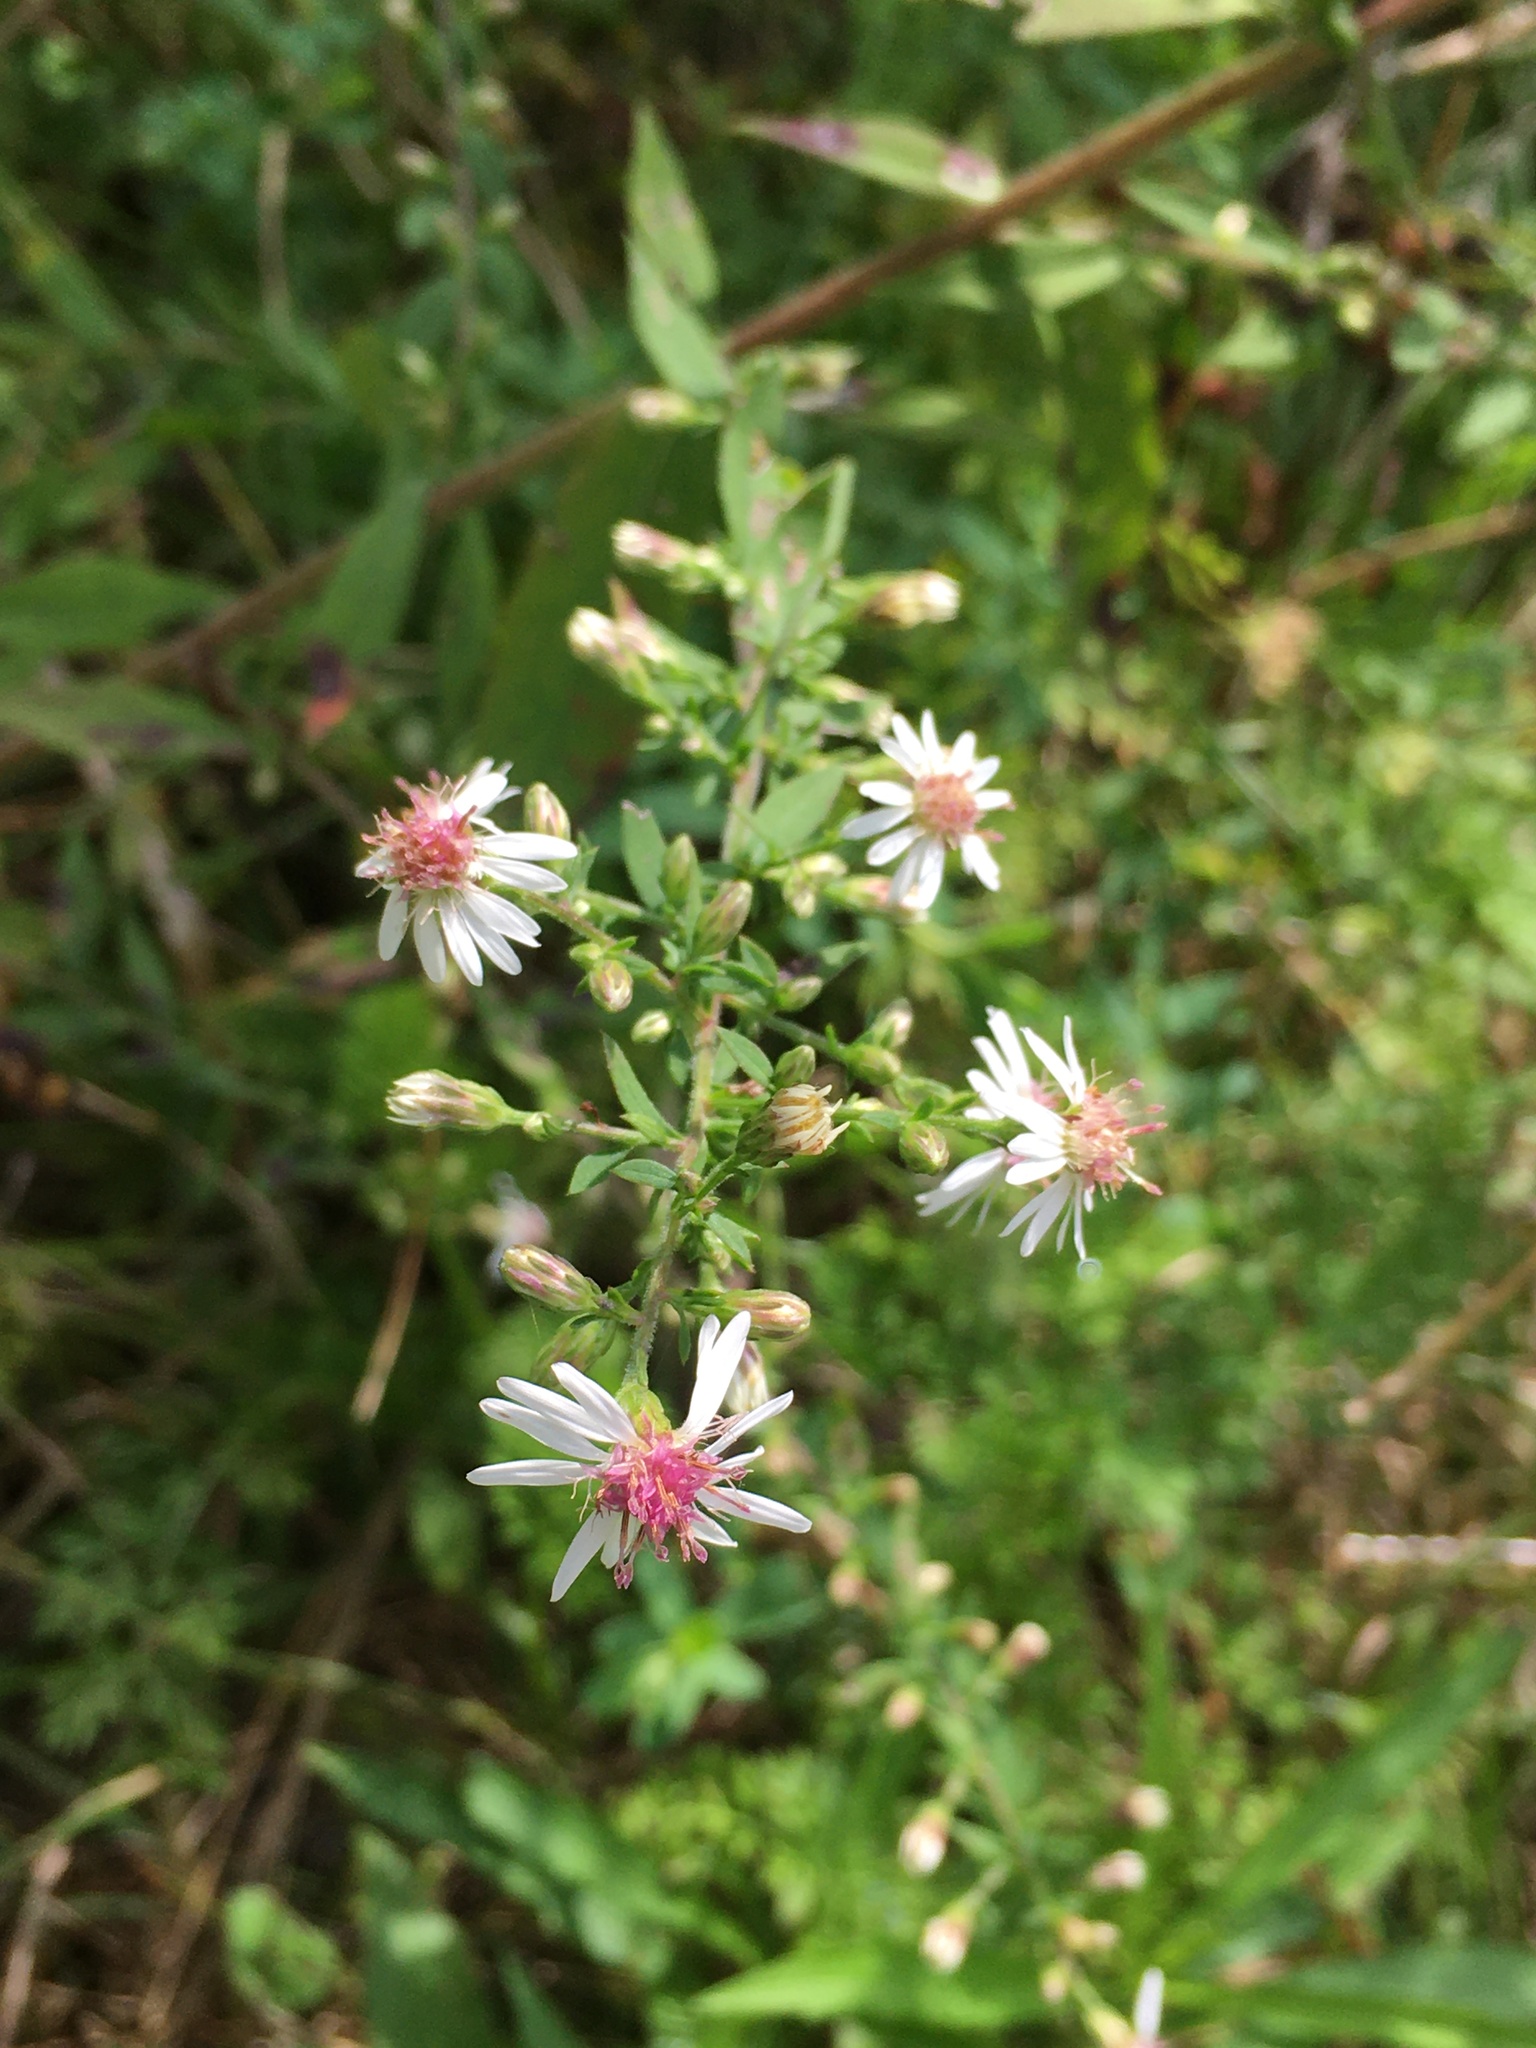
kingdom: Plantae
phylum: Tracheophyta
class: Magnoliopsida
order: Asterales
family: Asteraceae
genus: Symphyotrichum
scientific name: Symphyotrichum lateriflorum
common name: Calico aster
